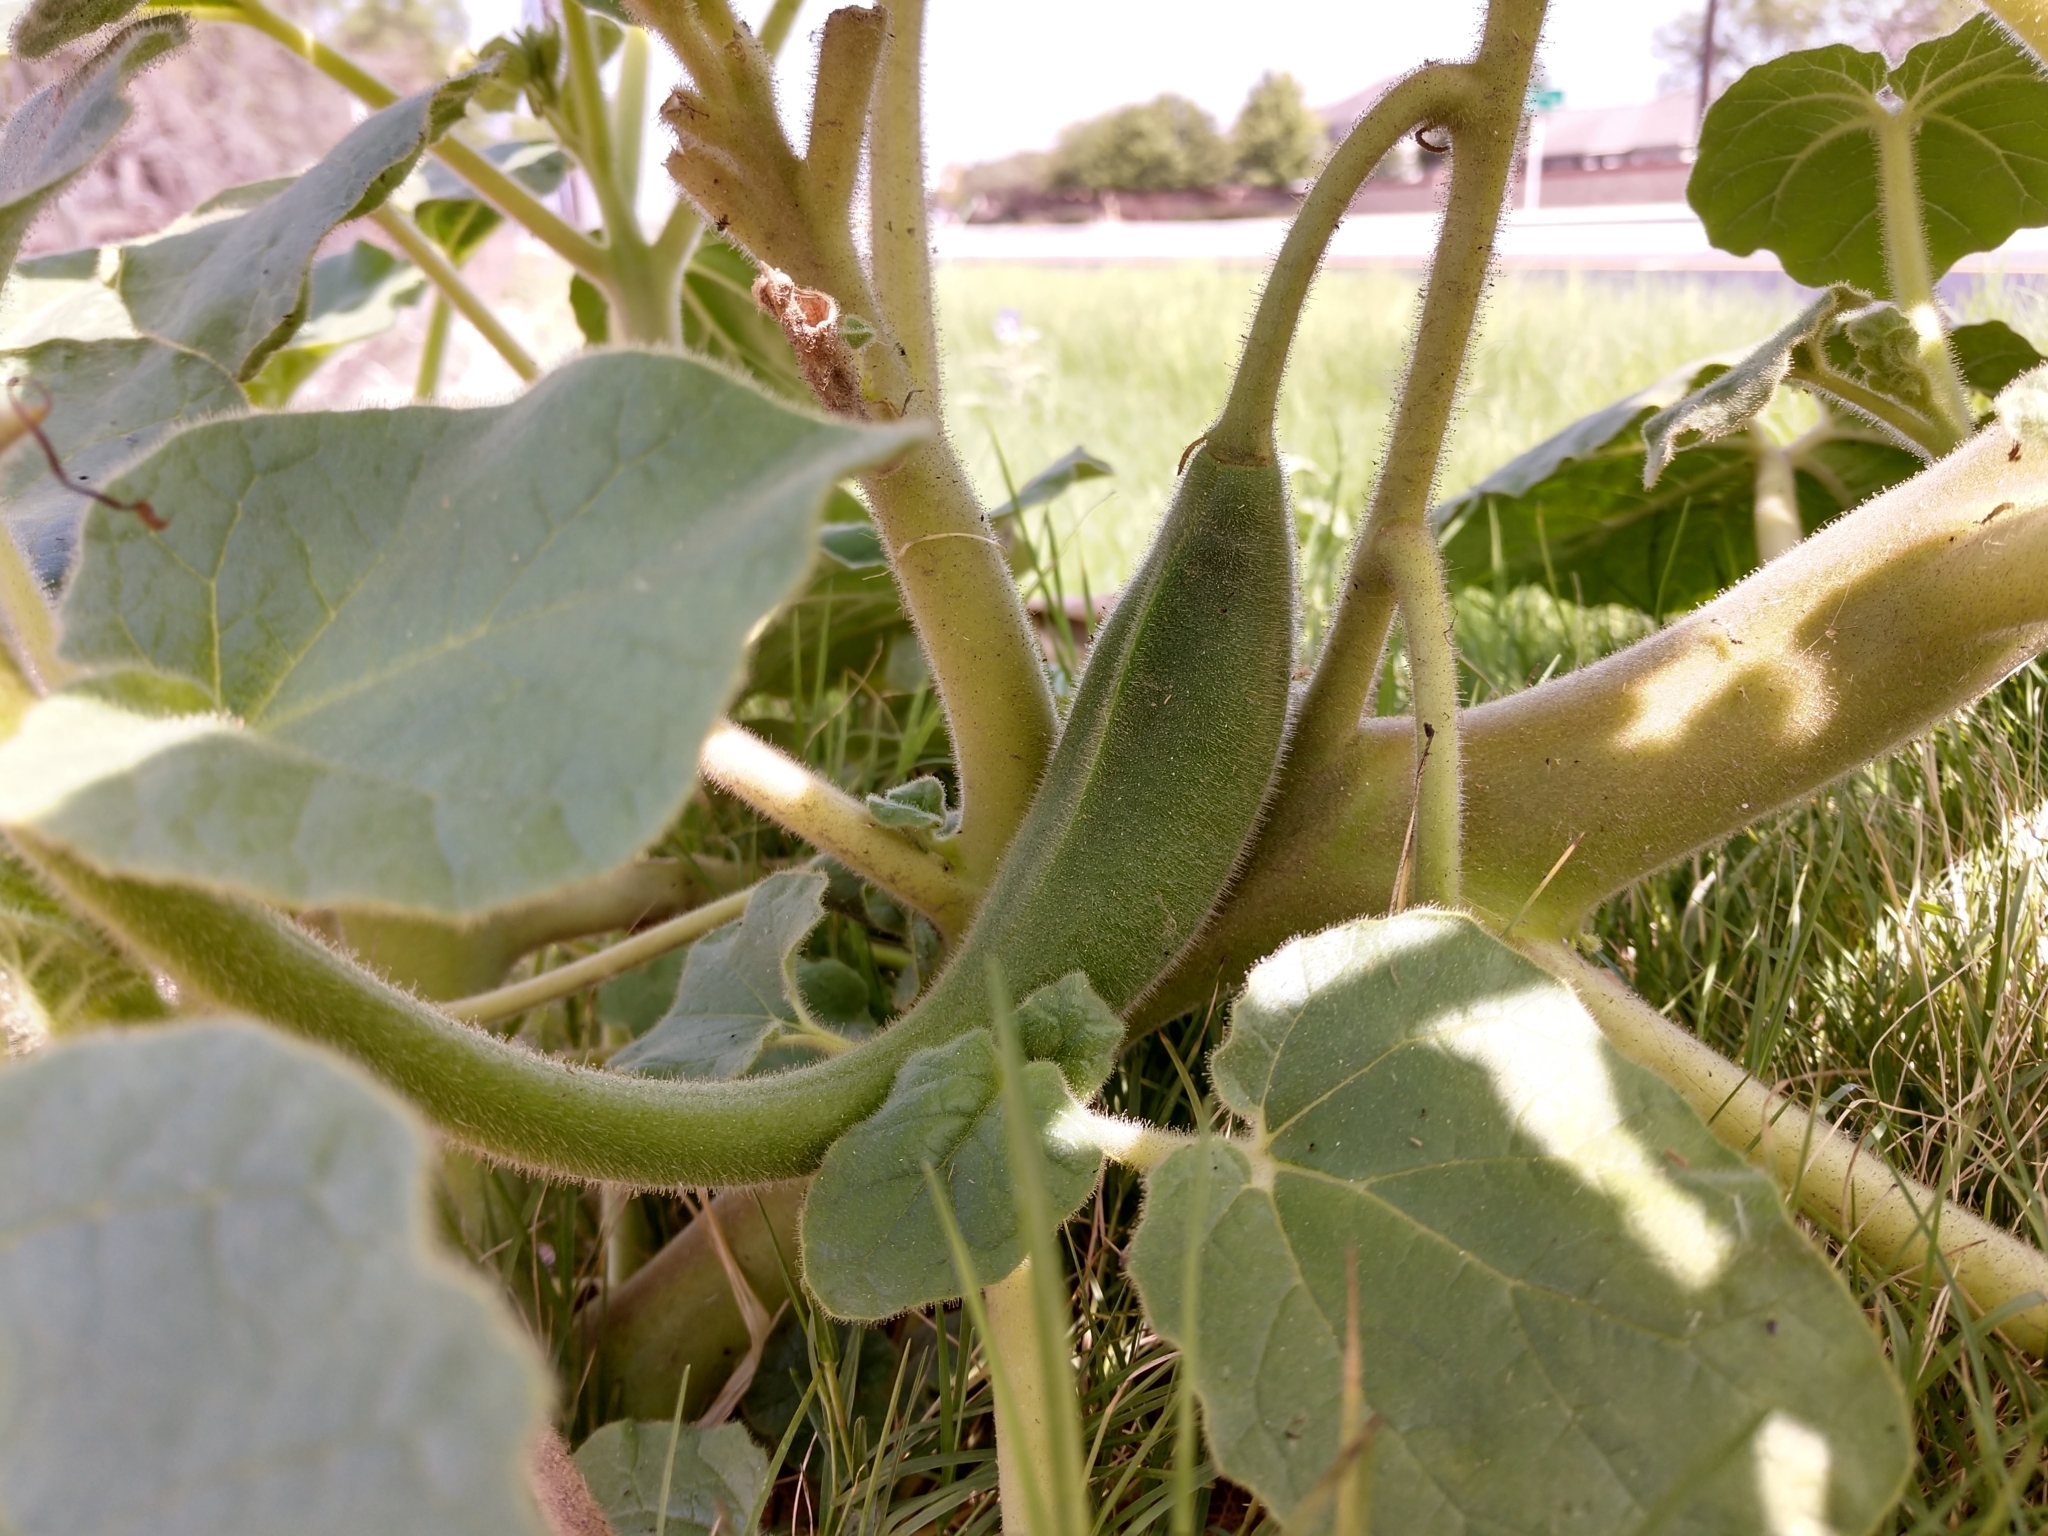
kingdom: Plantae
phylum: Tracheophyta
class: Magnoliopsida
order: Lamiales
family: Martyniaceae
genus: Proboscidea
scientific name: Proboscidea louisianica
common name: Elephant tusks
